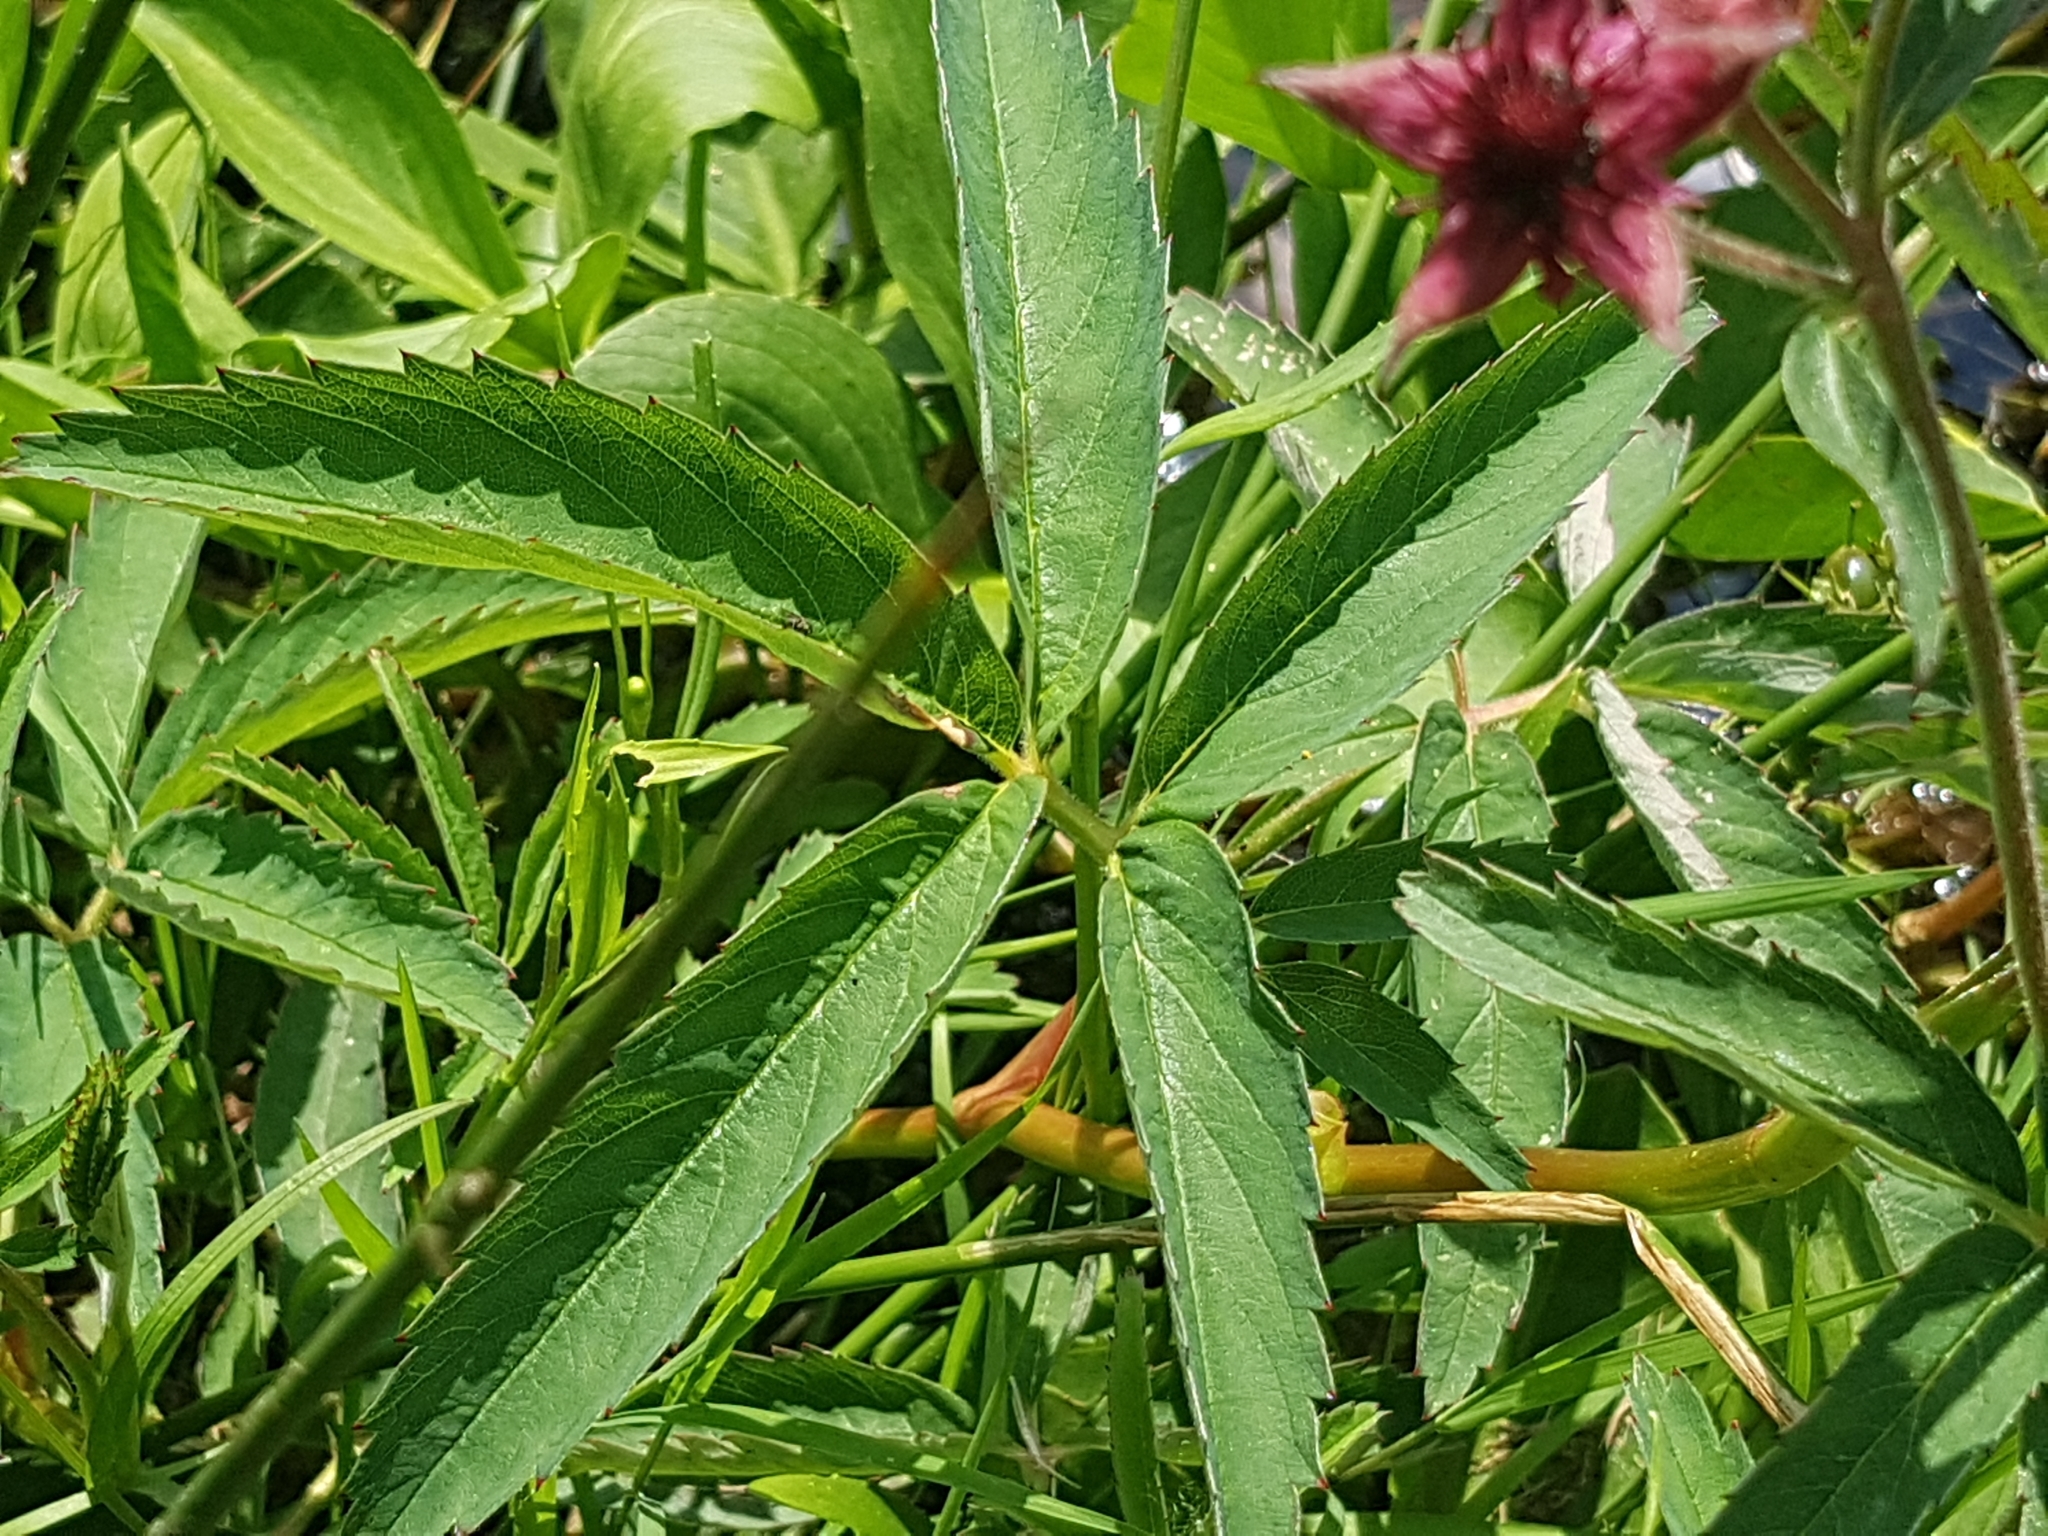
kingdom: Plantae
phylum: Tracheophyta
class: Magnoliopsida
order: Rosales
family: Rosaceae
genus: Comarum
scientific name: Comarum palustre
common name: Marsh cinquefoil
